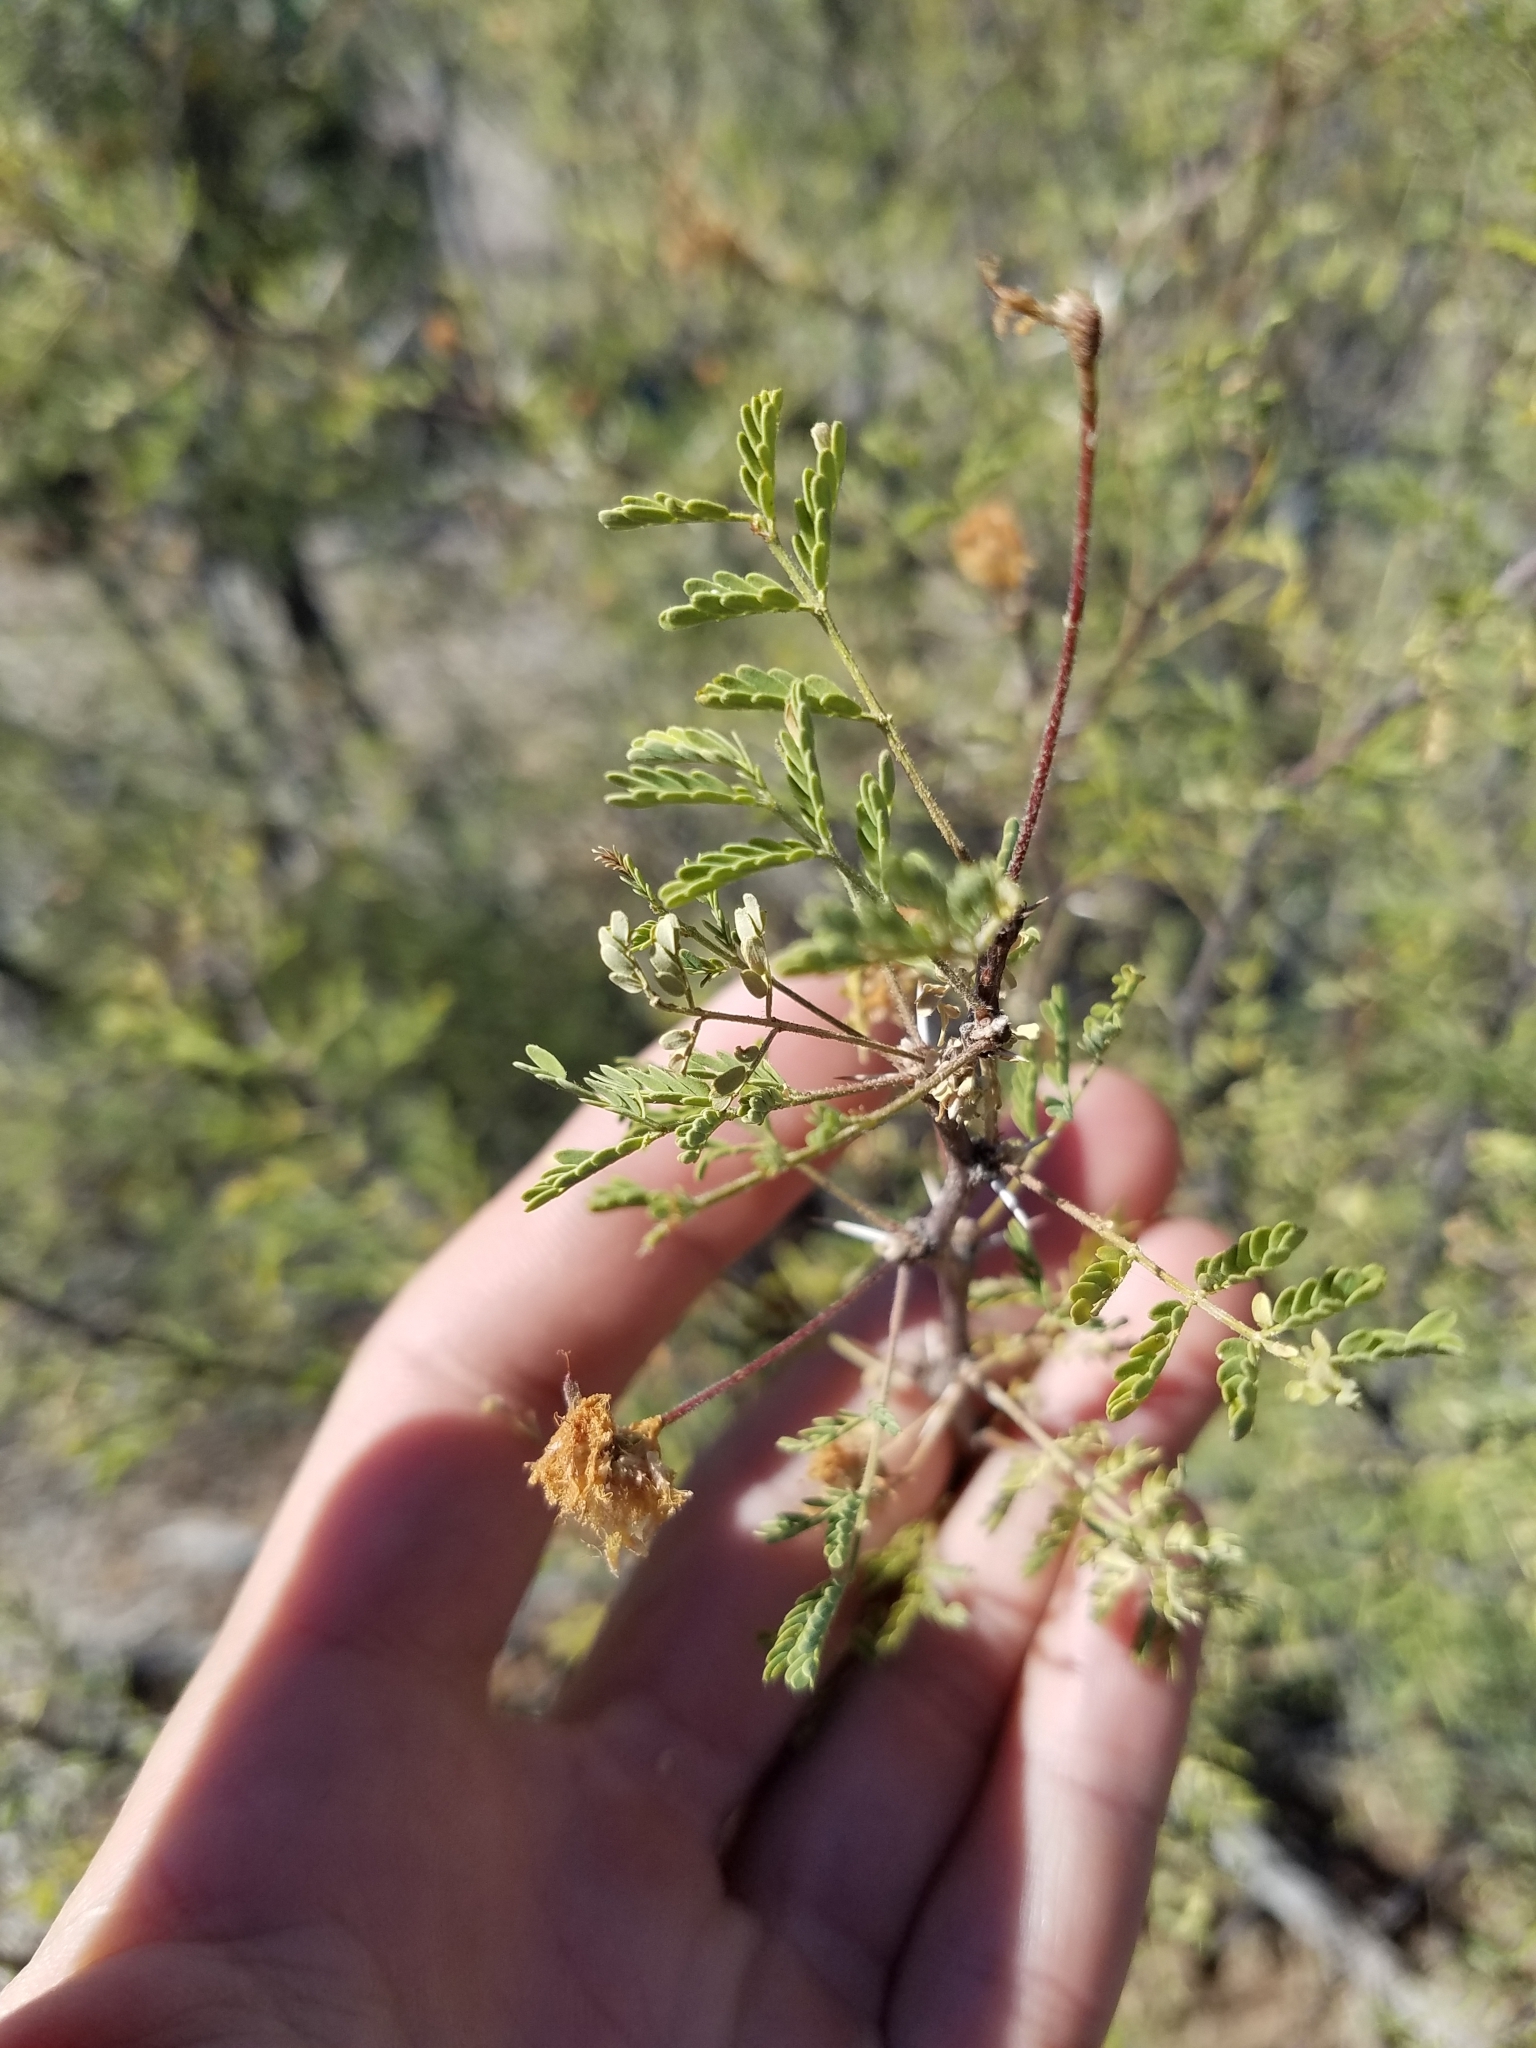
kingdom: Plantae
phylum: Tracheophyta
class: Magnoliopsida
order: Fabales
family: Fabaceae
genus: Vachellia
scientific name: Vachellia constricta
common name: Mescat acacia
